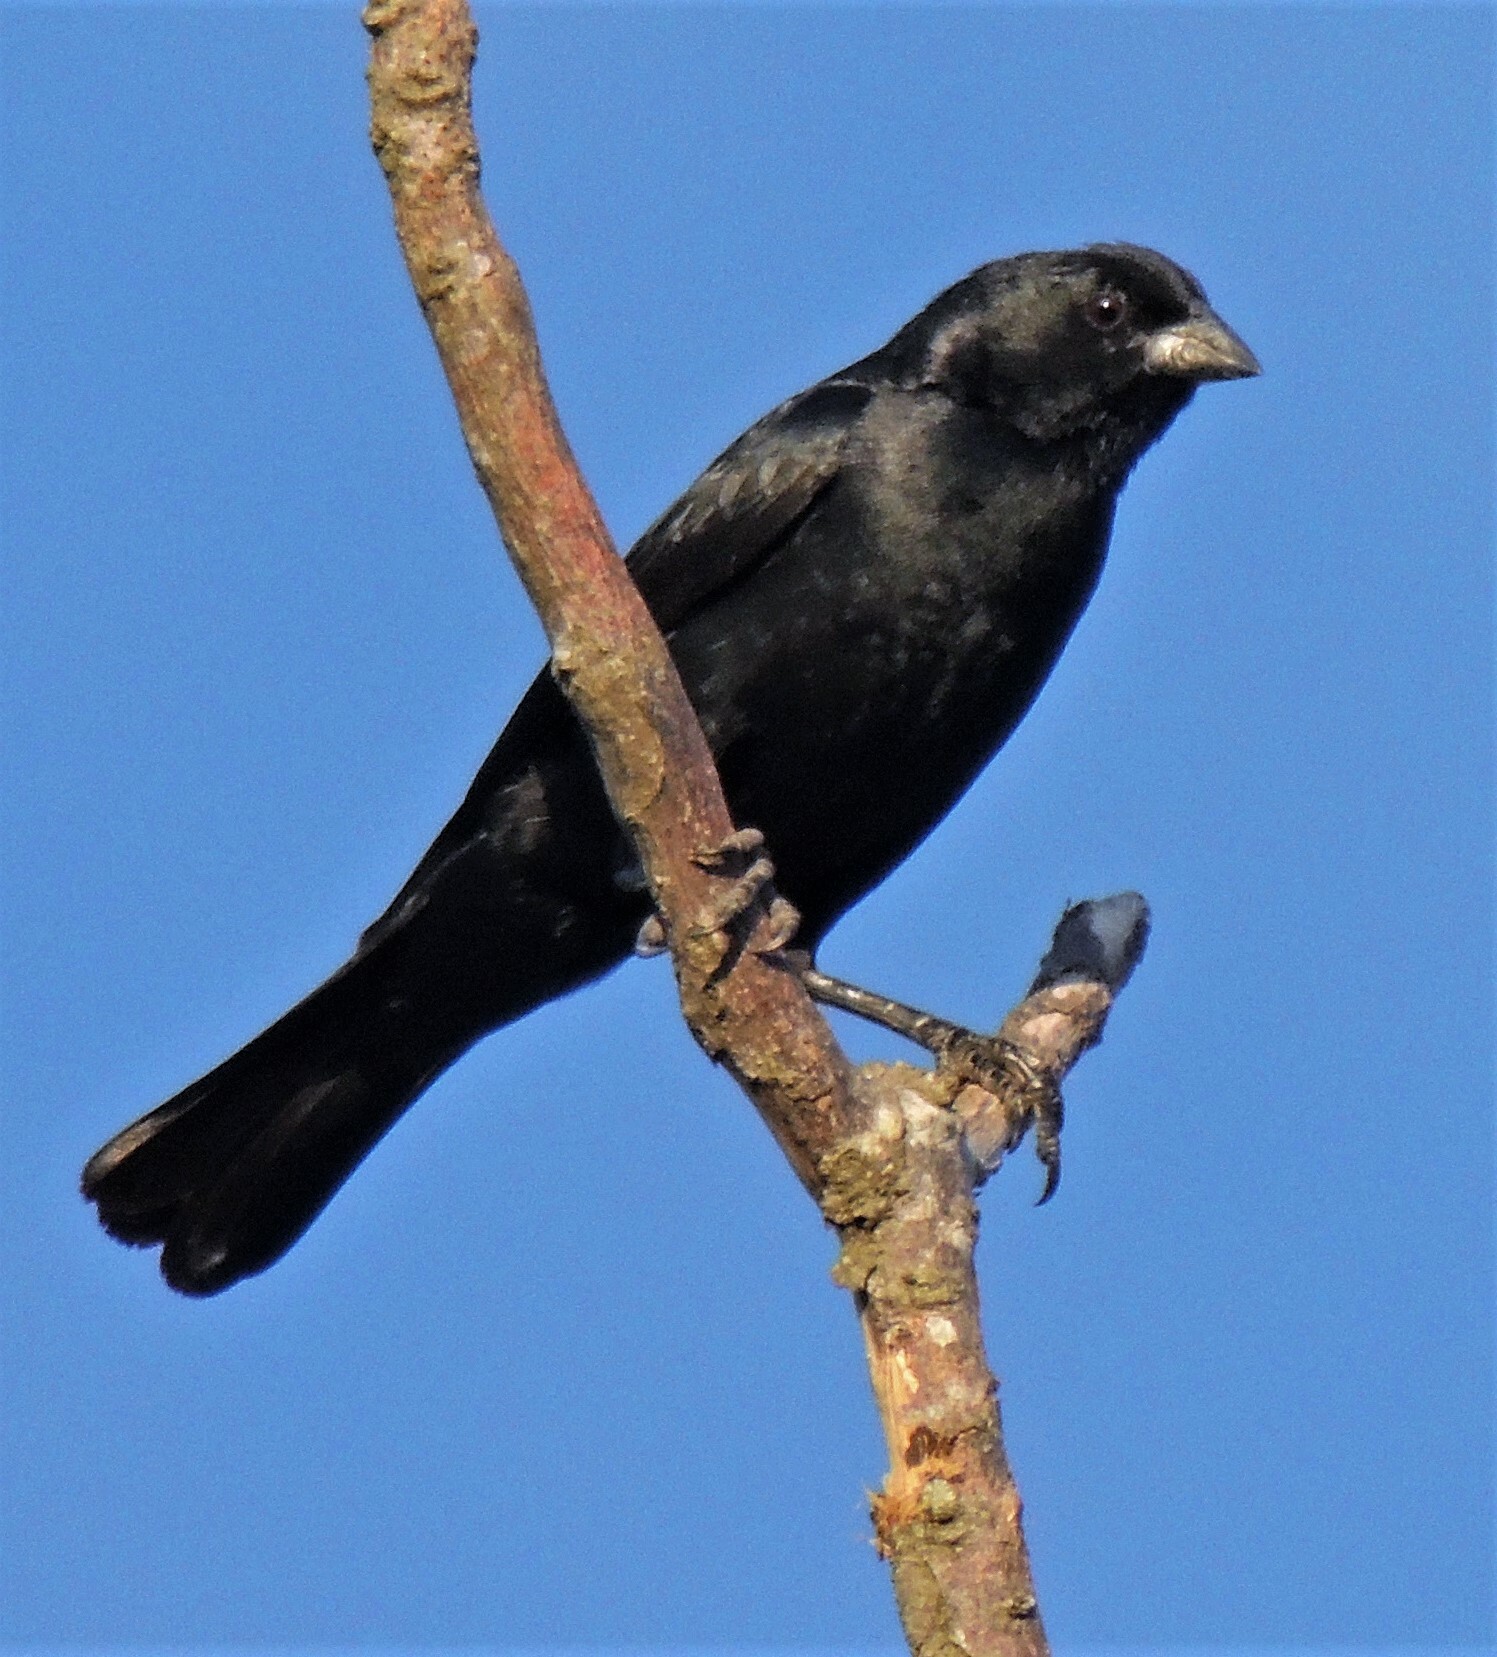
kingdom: Animalia
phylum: Chordata
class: Aves
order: Passeriformes
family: Icteridae
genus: Molothrus
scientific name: Molothrus rufoaxillaris
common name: Screaming cowbird
